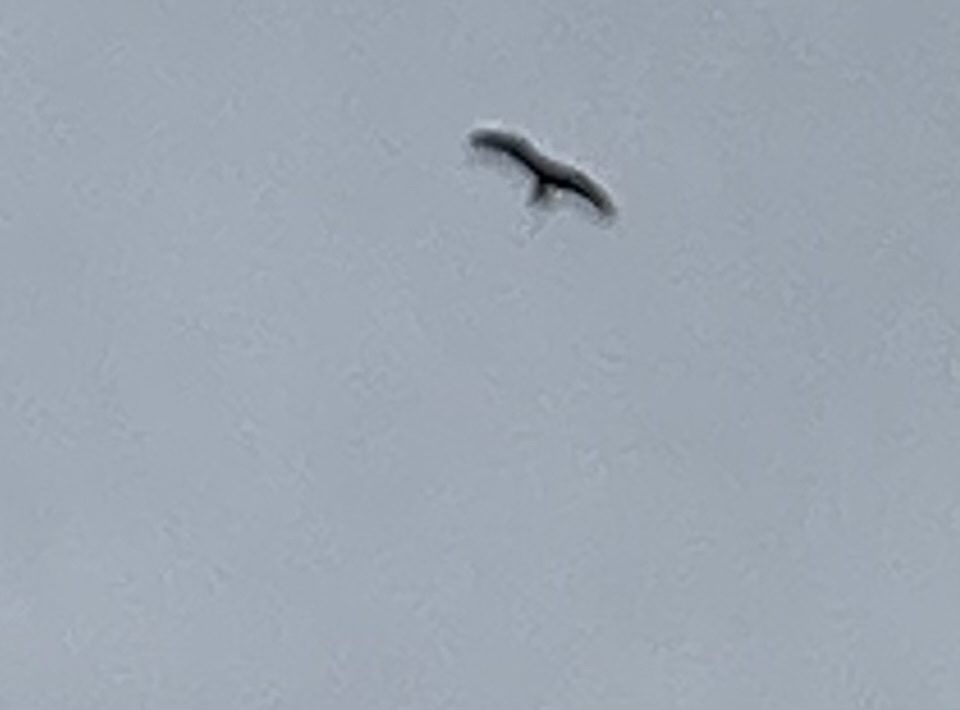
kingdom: Animalia
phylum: Chordata
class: Aves
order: Accipitriformes
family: Accipitridae
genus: Milvus
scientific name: Milvus milvus
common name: Red kite
